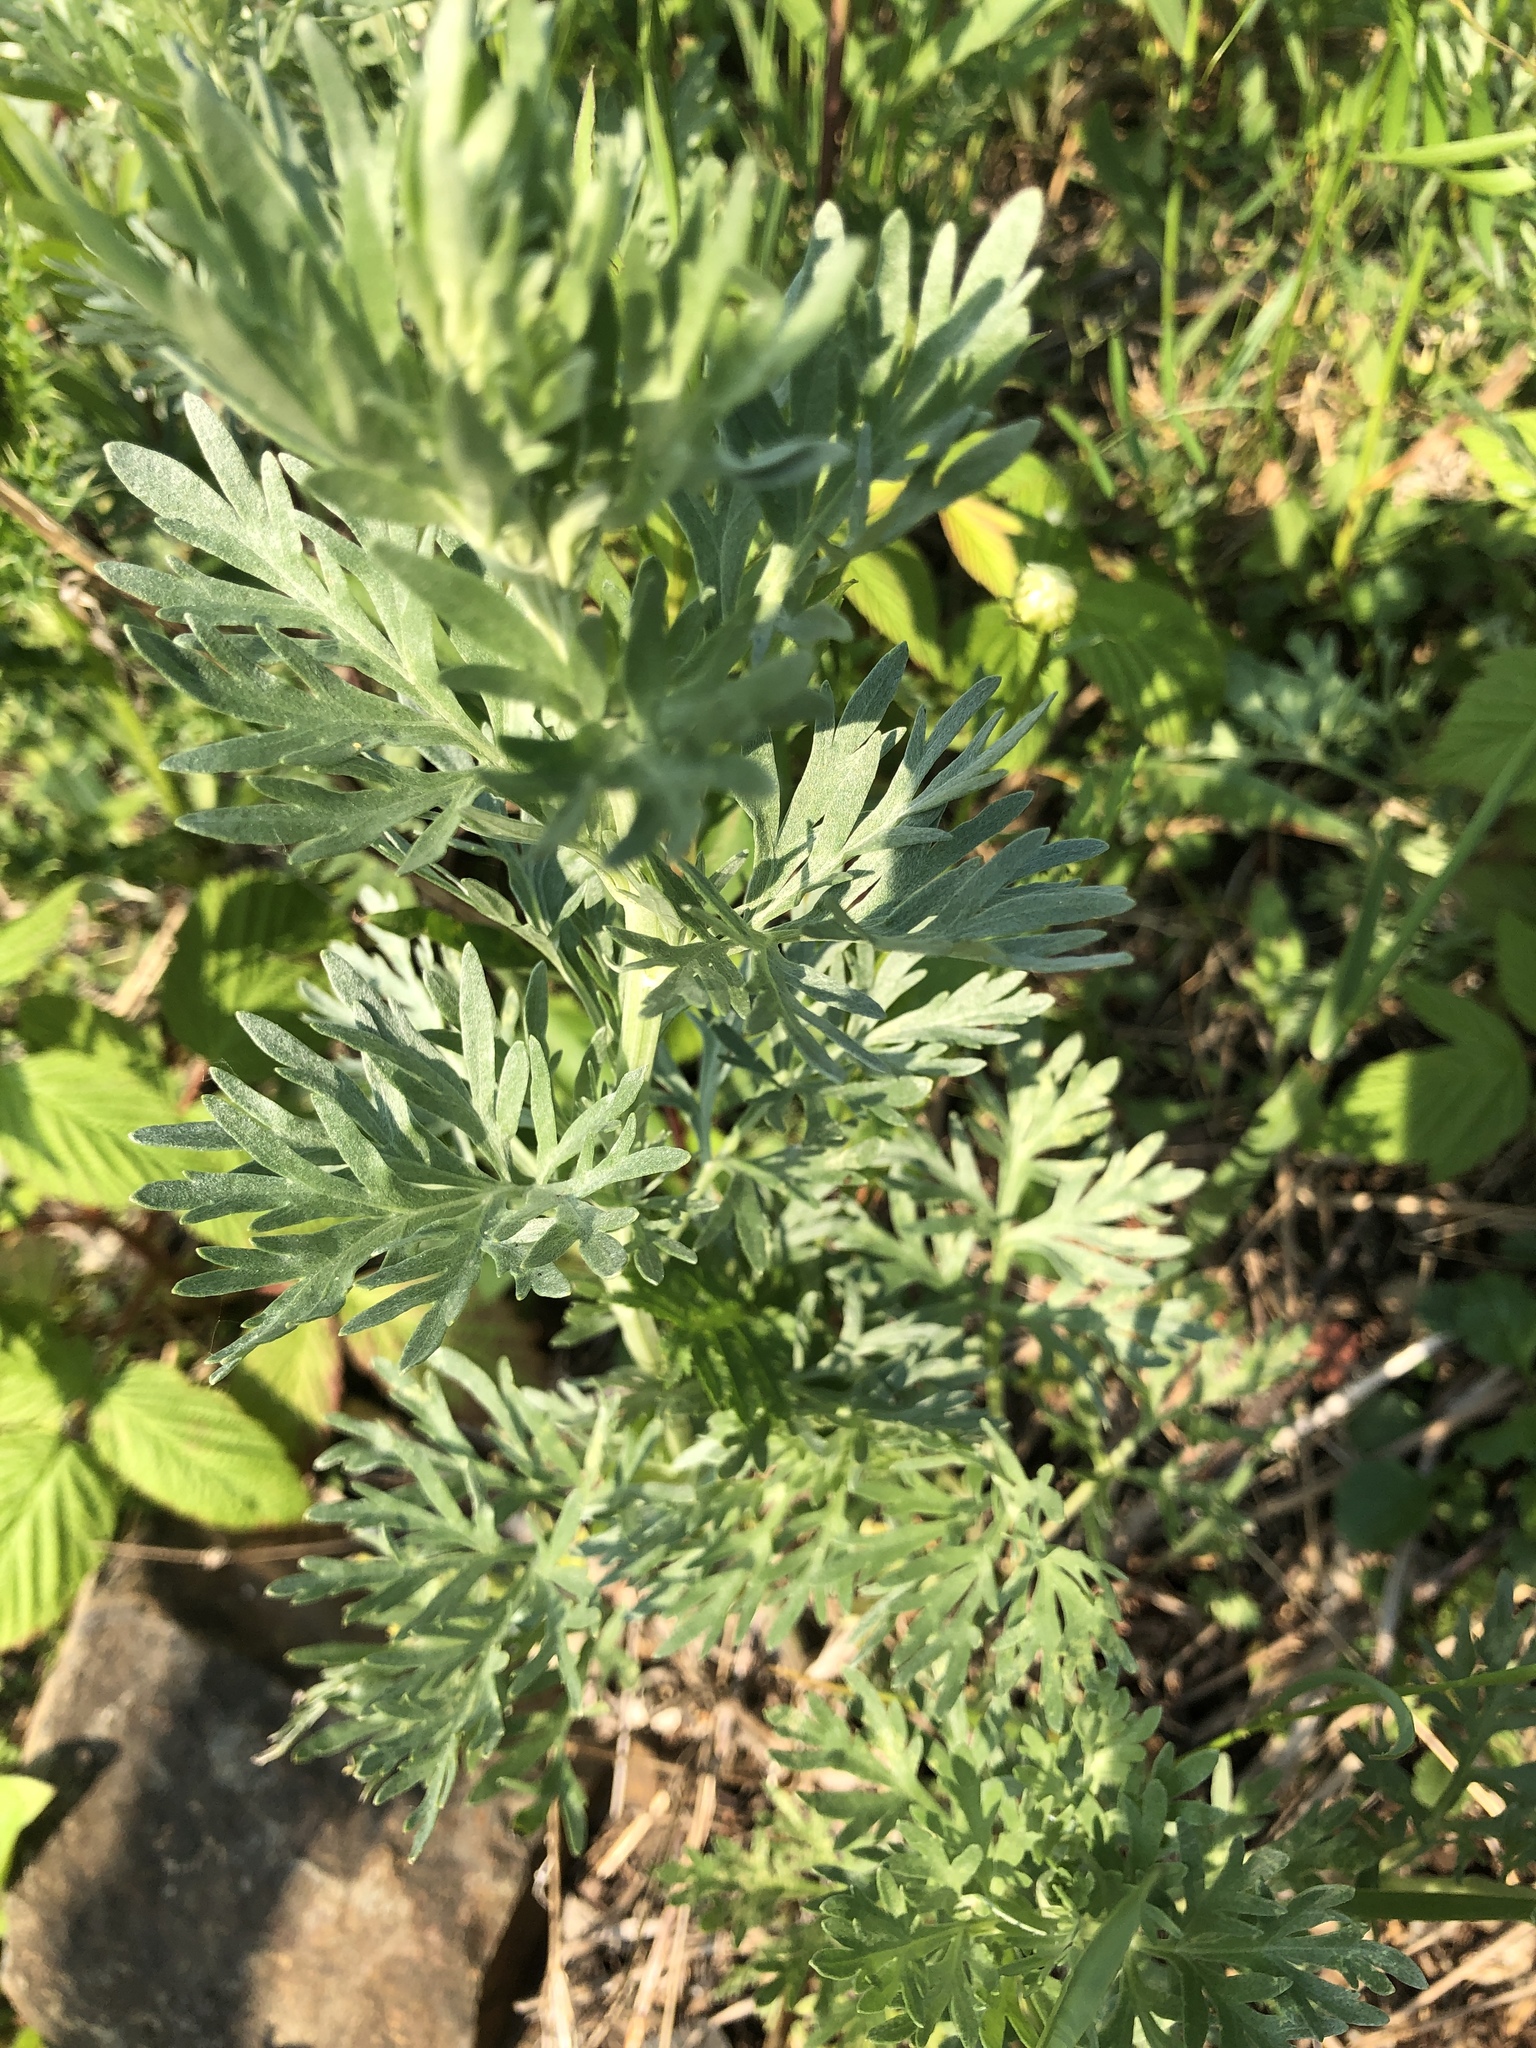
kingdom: Plantae
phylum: Tracheophyta
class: Magnoliopsida
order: Asterales
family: Asteraceae
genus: Artemisia
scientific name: Artemisia absinthium
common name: Wormwood
